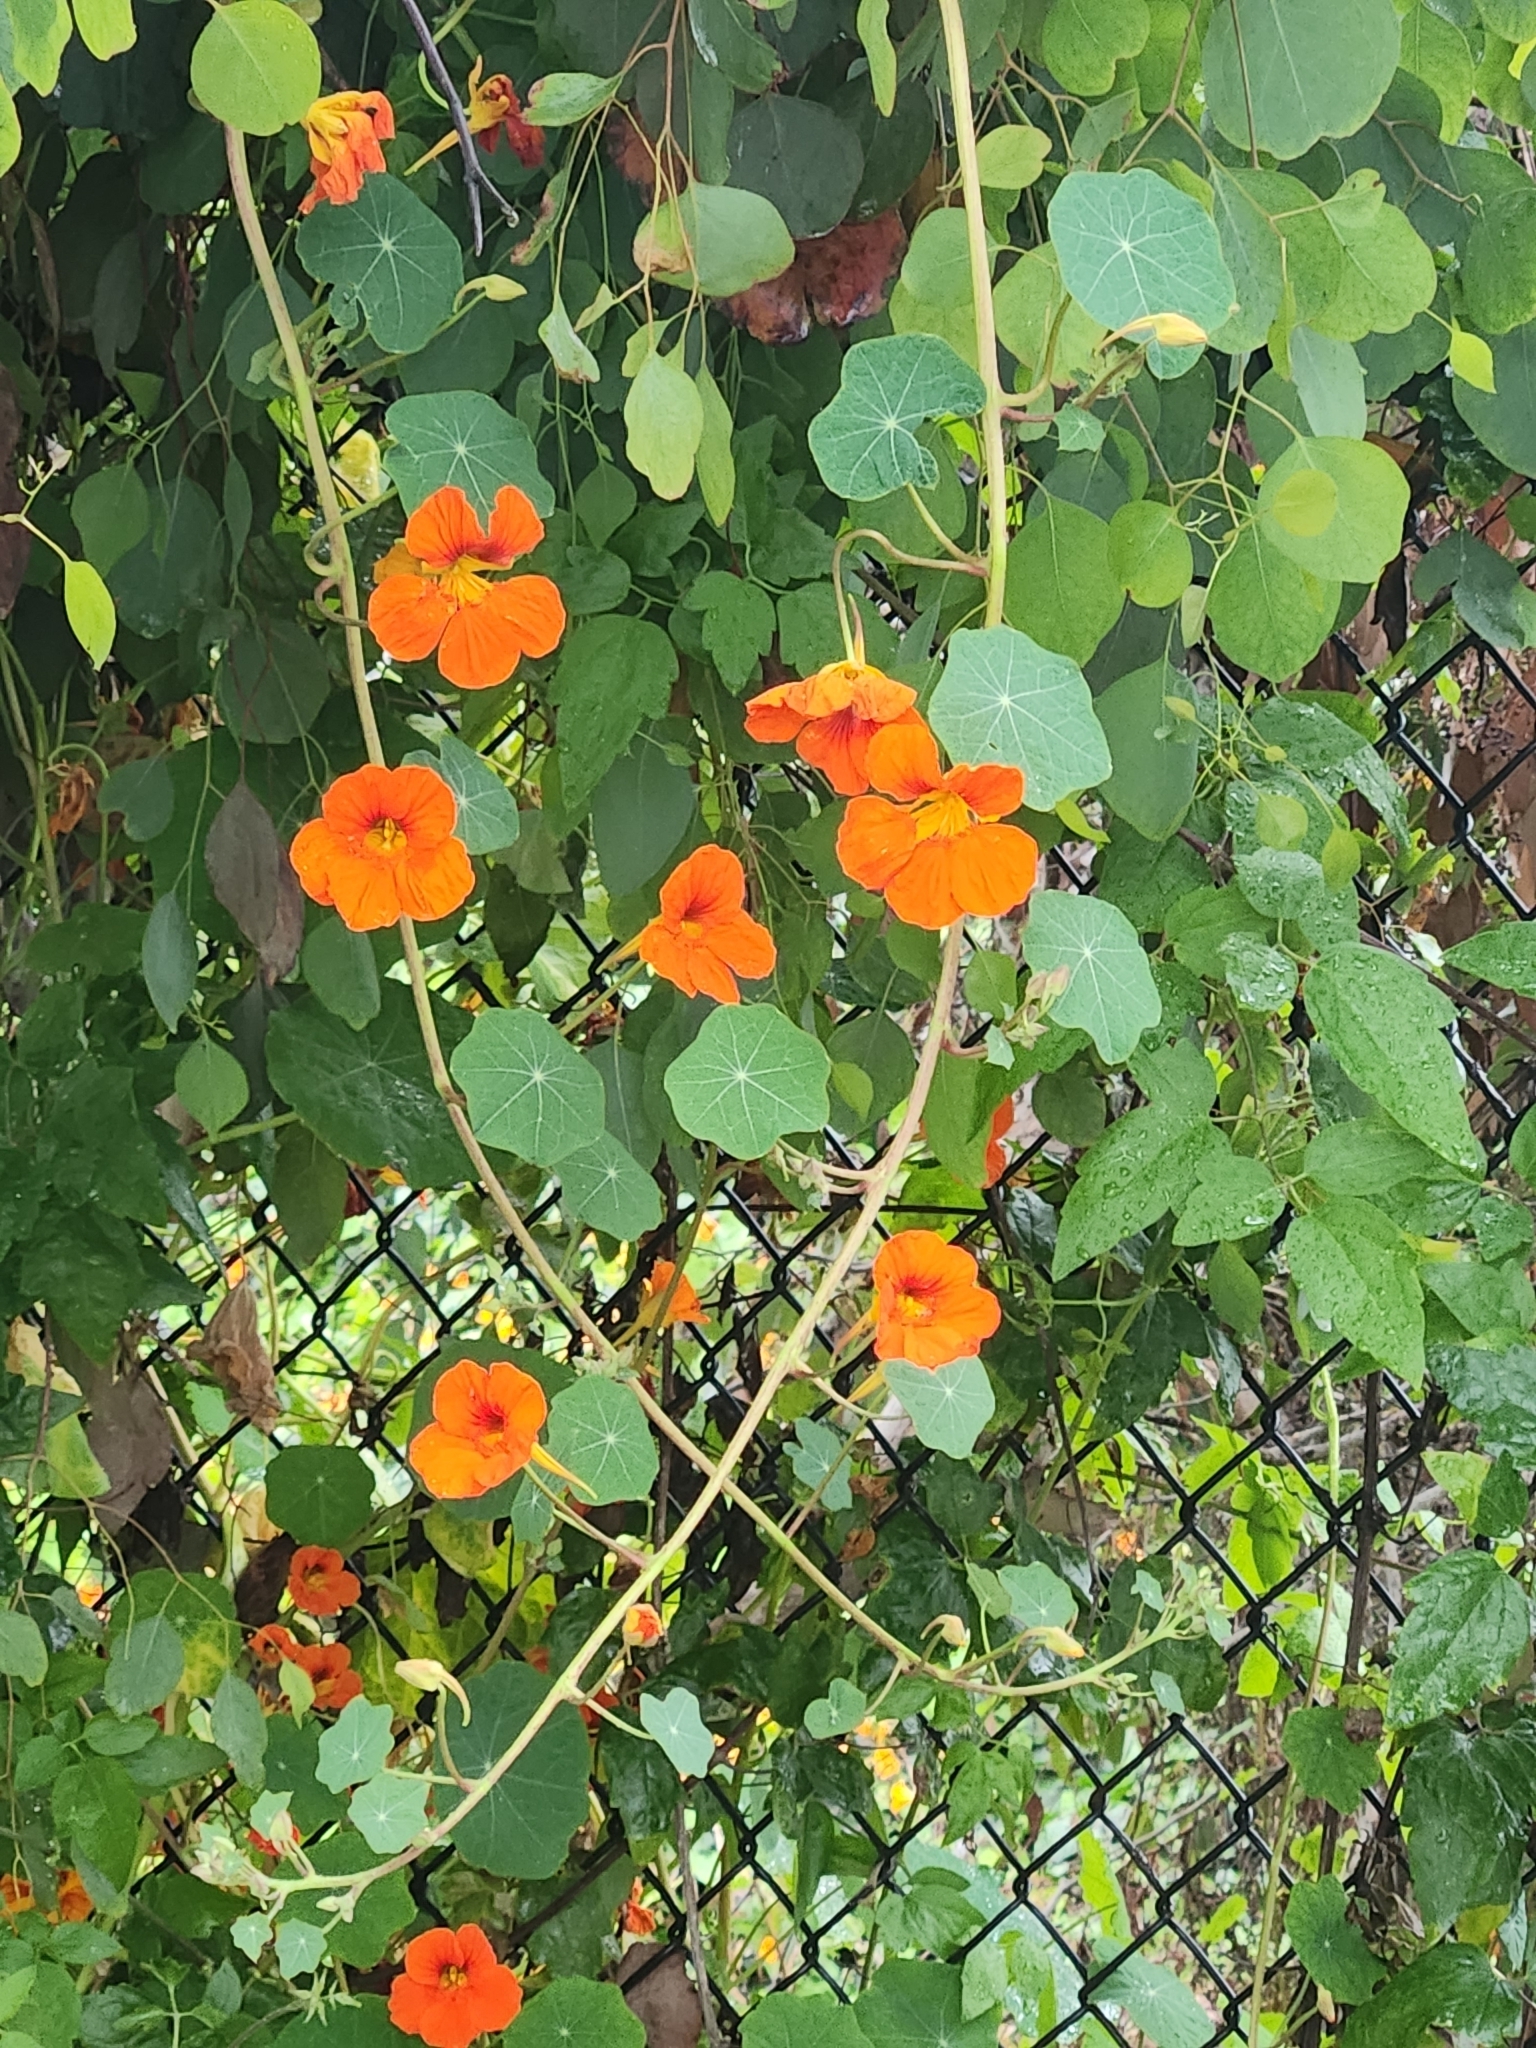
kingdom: Plantae
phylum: Tracheophyta
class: Magnoliopsida
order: Brassicales
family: Tropaeolaceae
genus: Tropaeolum
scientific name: Tropaeolum majus
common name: Nasturtium
